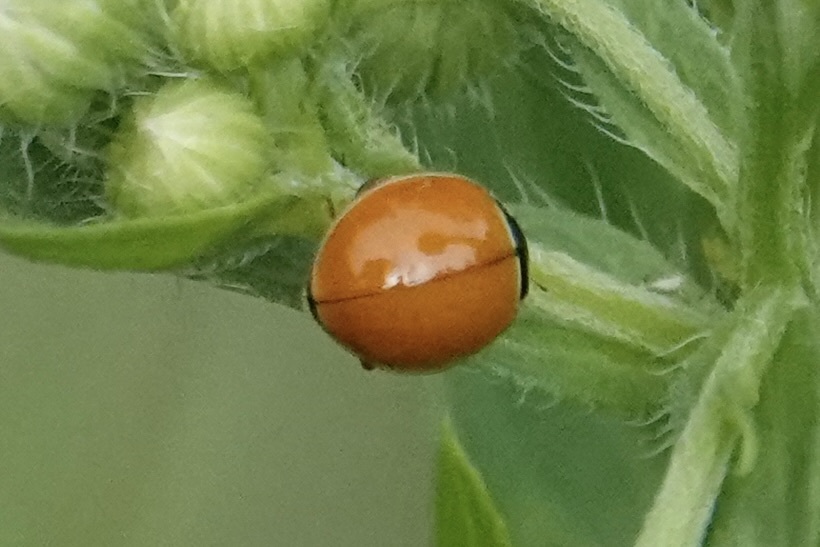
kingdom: Animalia
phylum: Arthropoda
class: Insecta
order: Coleoptera
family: Coccinellidae
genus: Cycloneda
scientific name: Cycloneda munda
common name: Polished lady beetle
